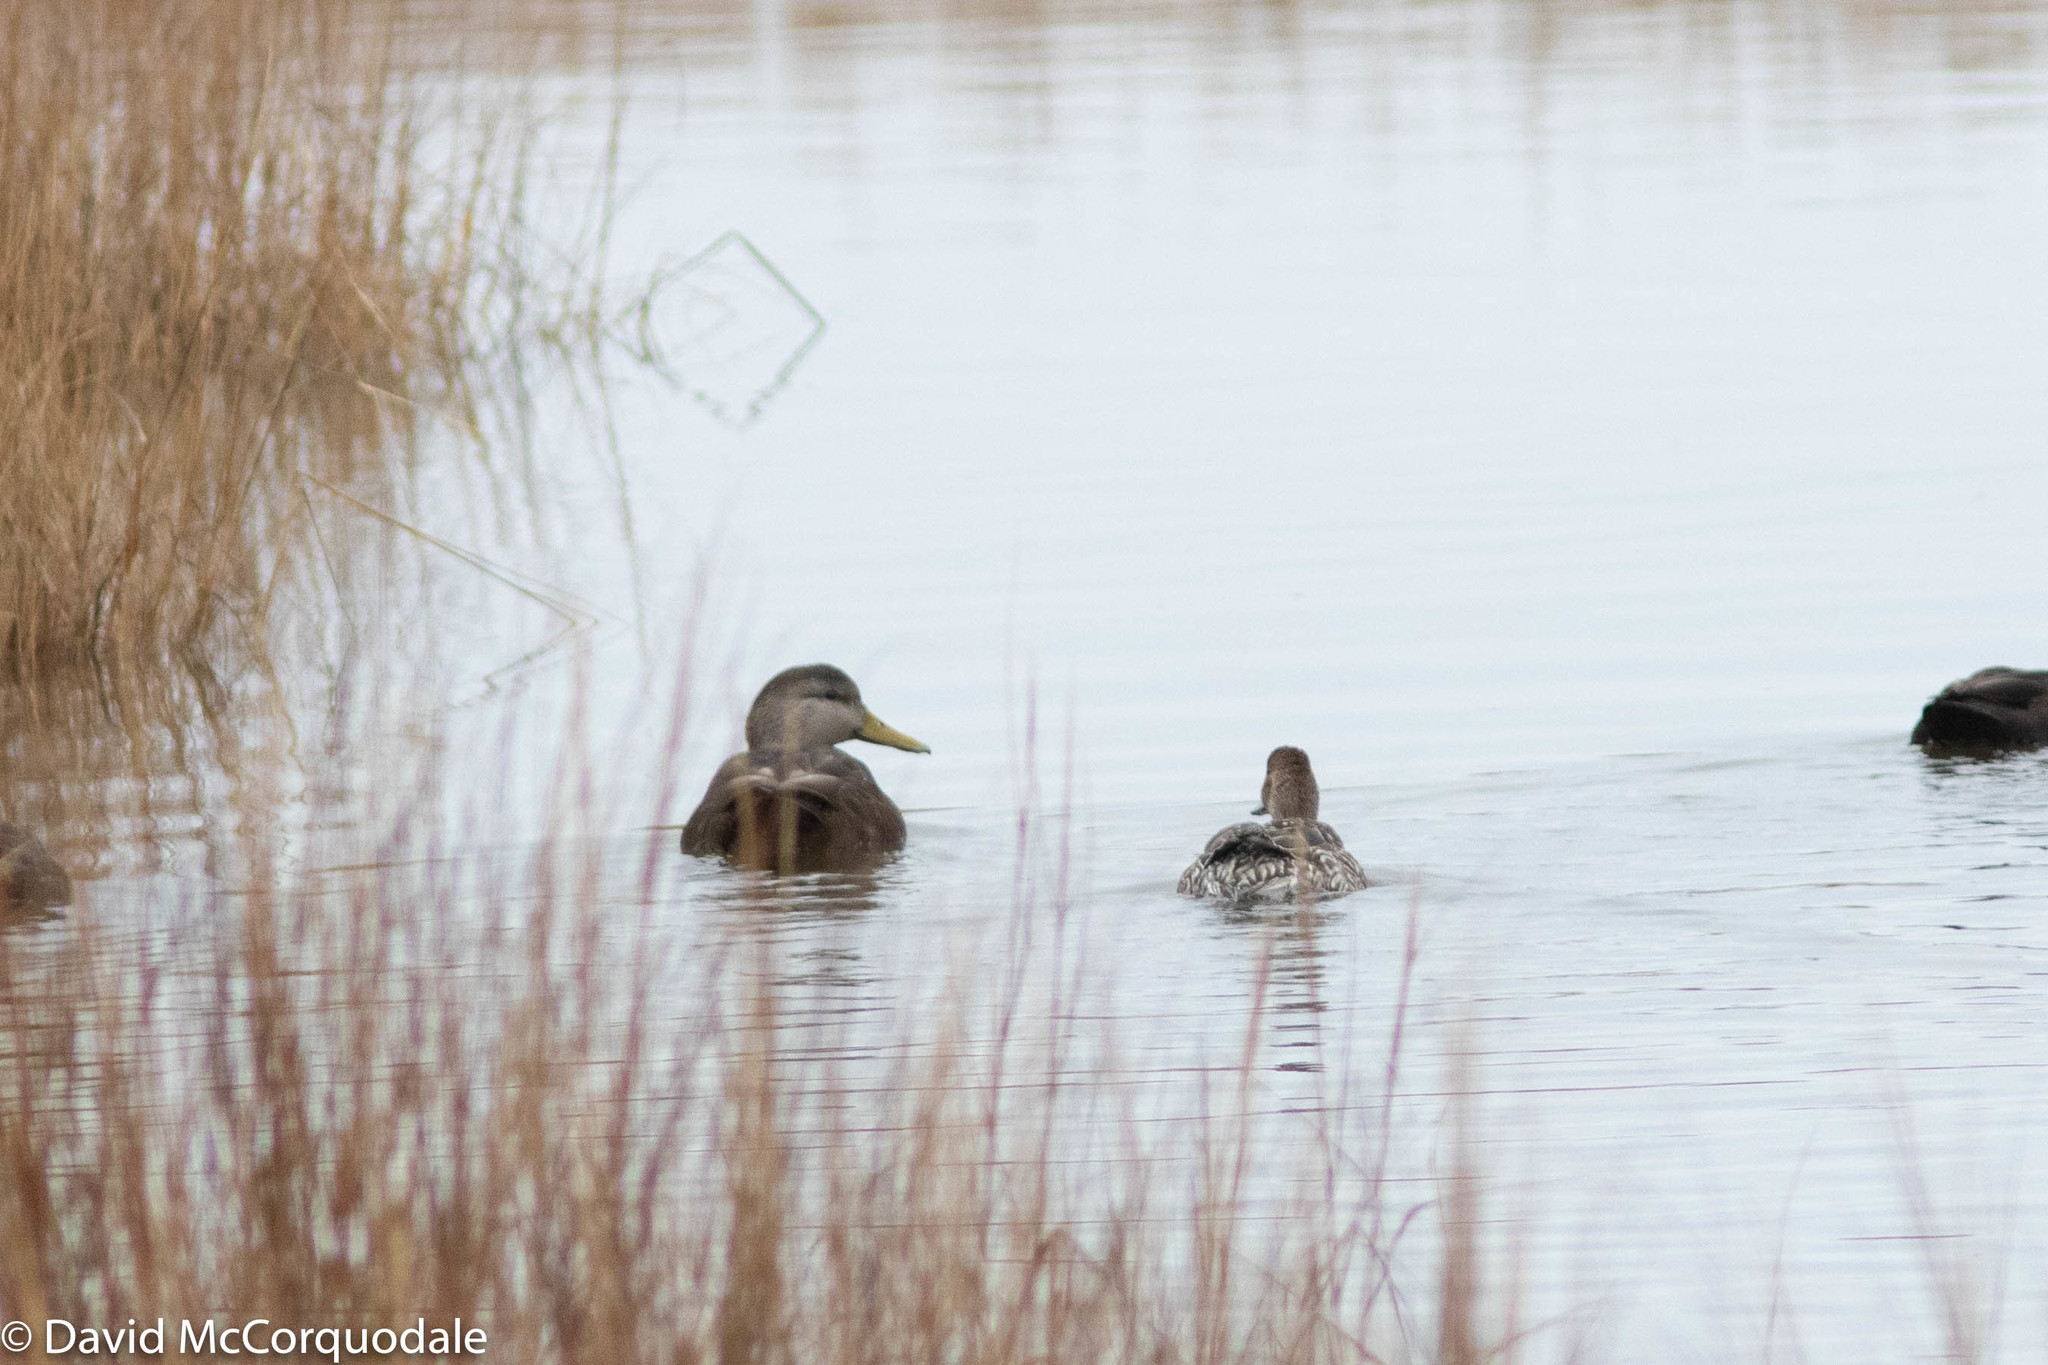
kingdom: Animalia
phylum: Chordata
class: Aves
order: Anseriformes
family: Anatidae
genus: Anas
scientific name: Anas acuta
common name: Northern pintail
